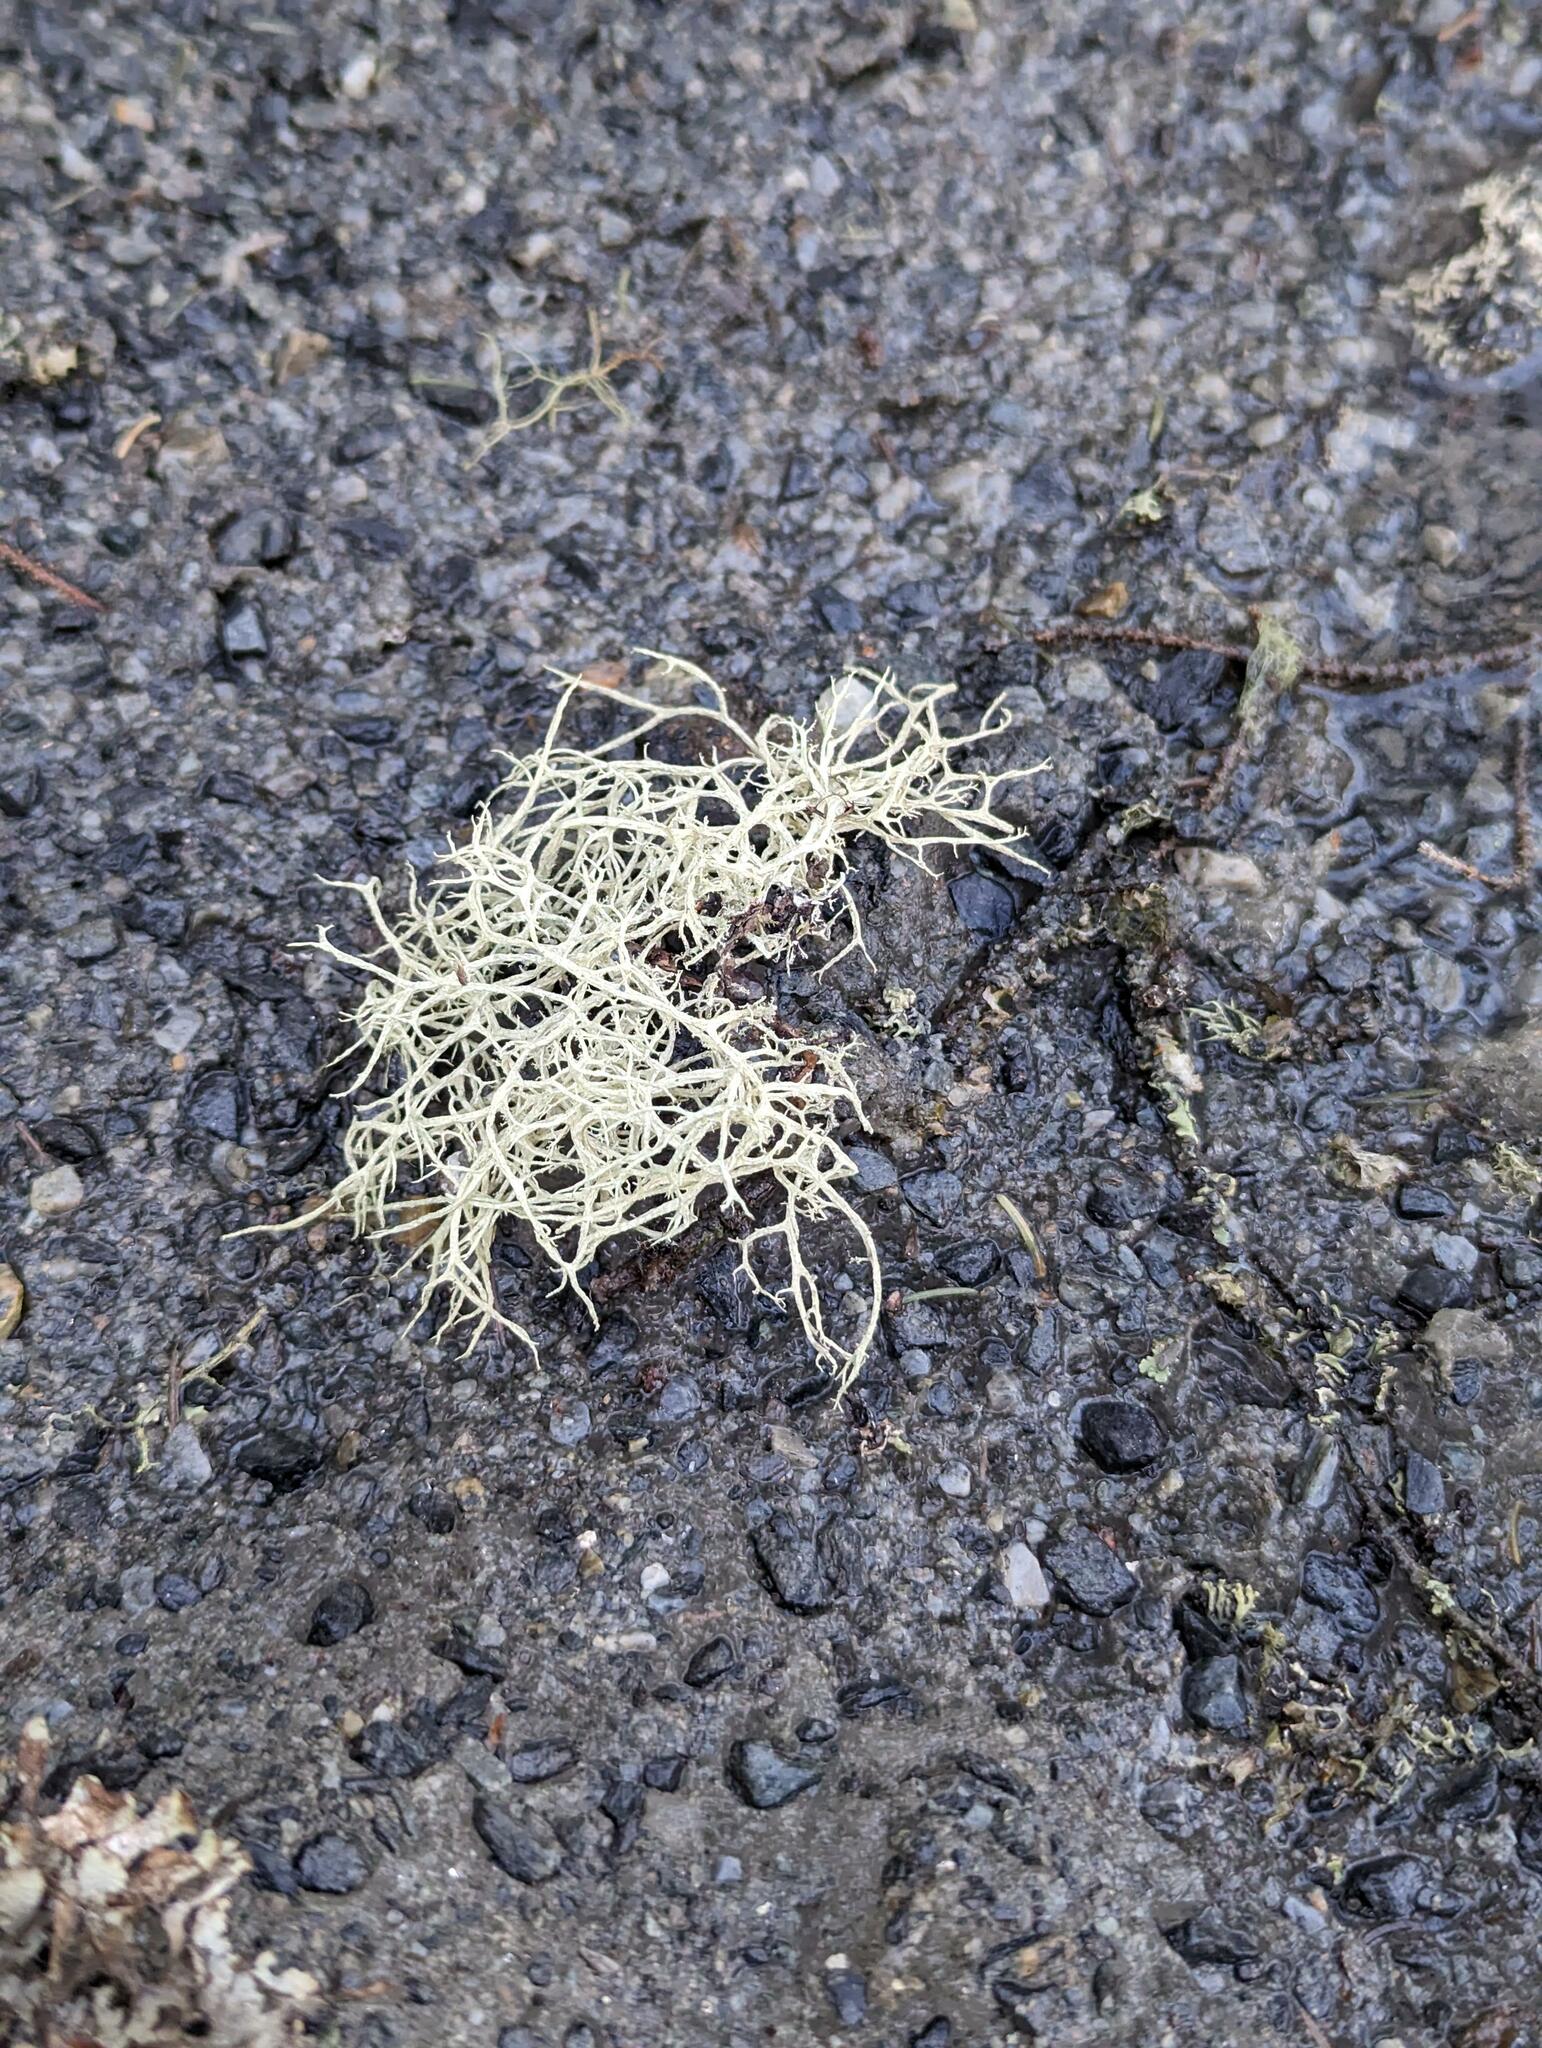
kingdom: Fungi
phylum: Ascomycota
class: Lecanoromycetes
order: Lecanorales
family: Parmeliaceae
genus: Evernia
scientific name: Evernia mesomorpha
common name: Boreal oak moss lichen
